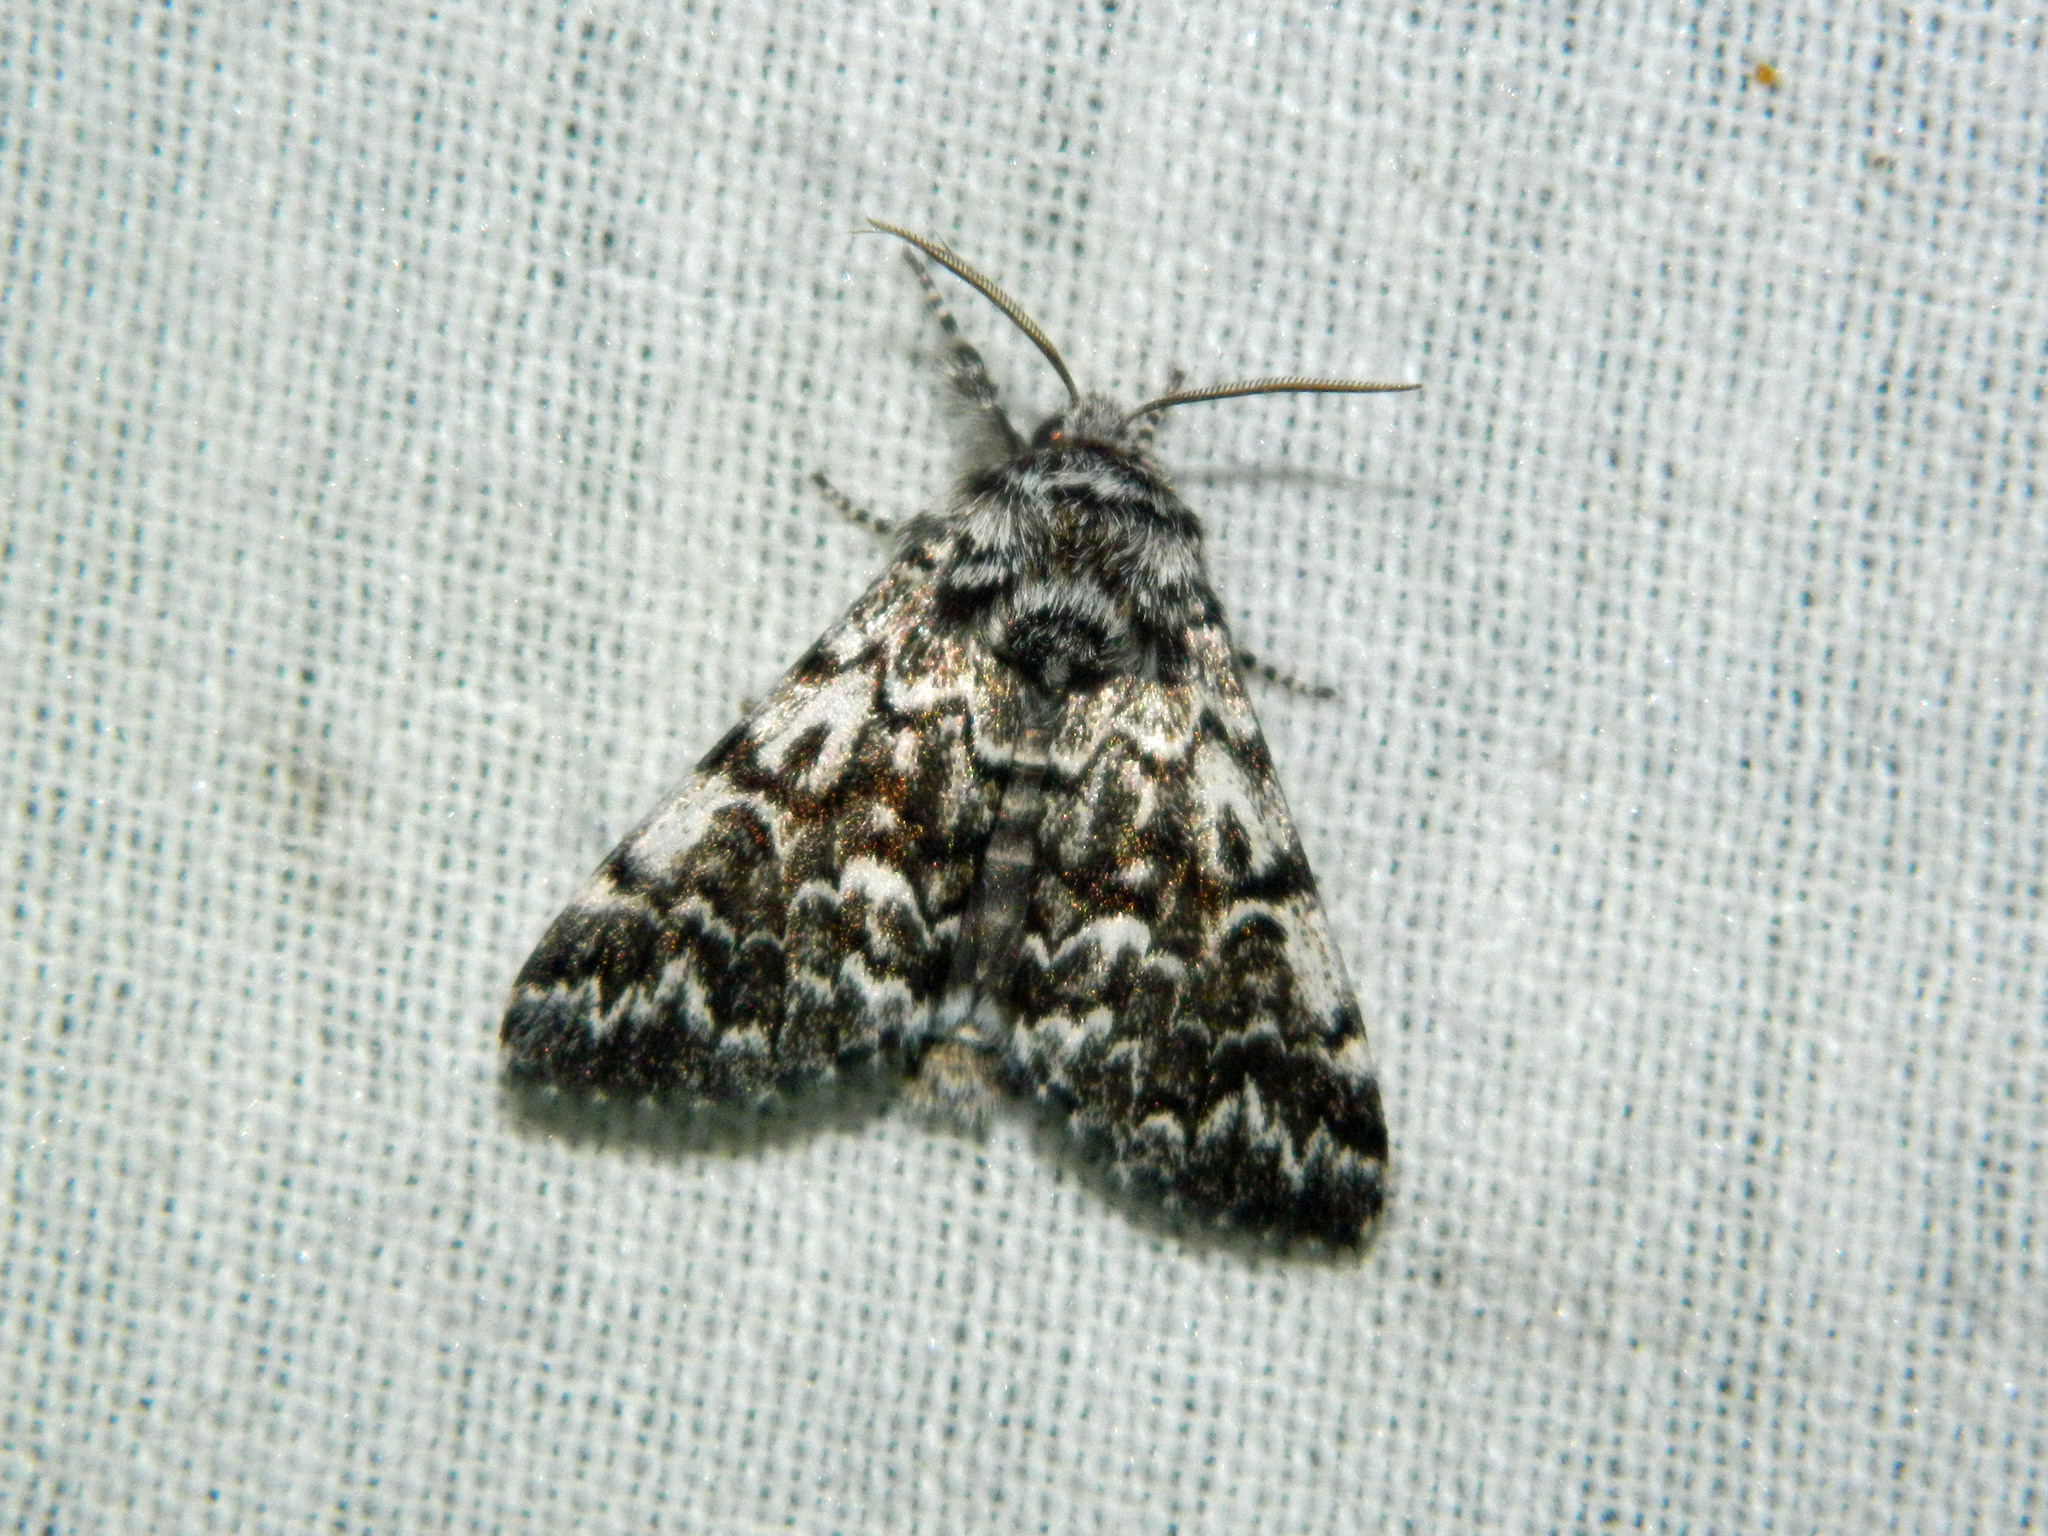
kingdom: Animalia
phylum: Arthropoda
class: Insecta
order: Lepidoptera
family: Noctuidae
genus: Panthea
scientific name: Panthea acronyctoides
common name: Black zigzag moth
